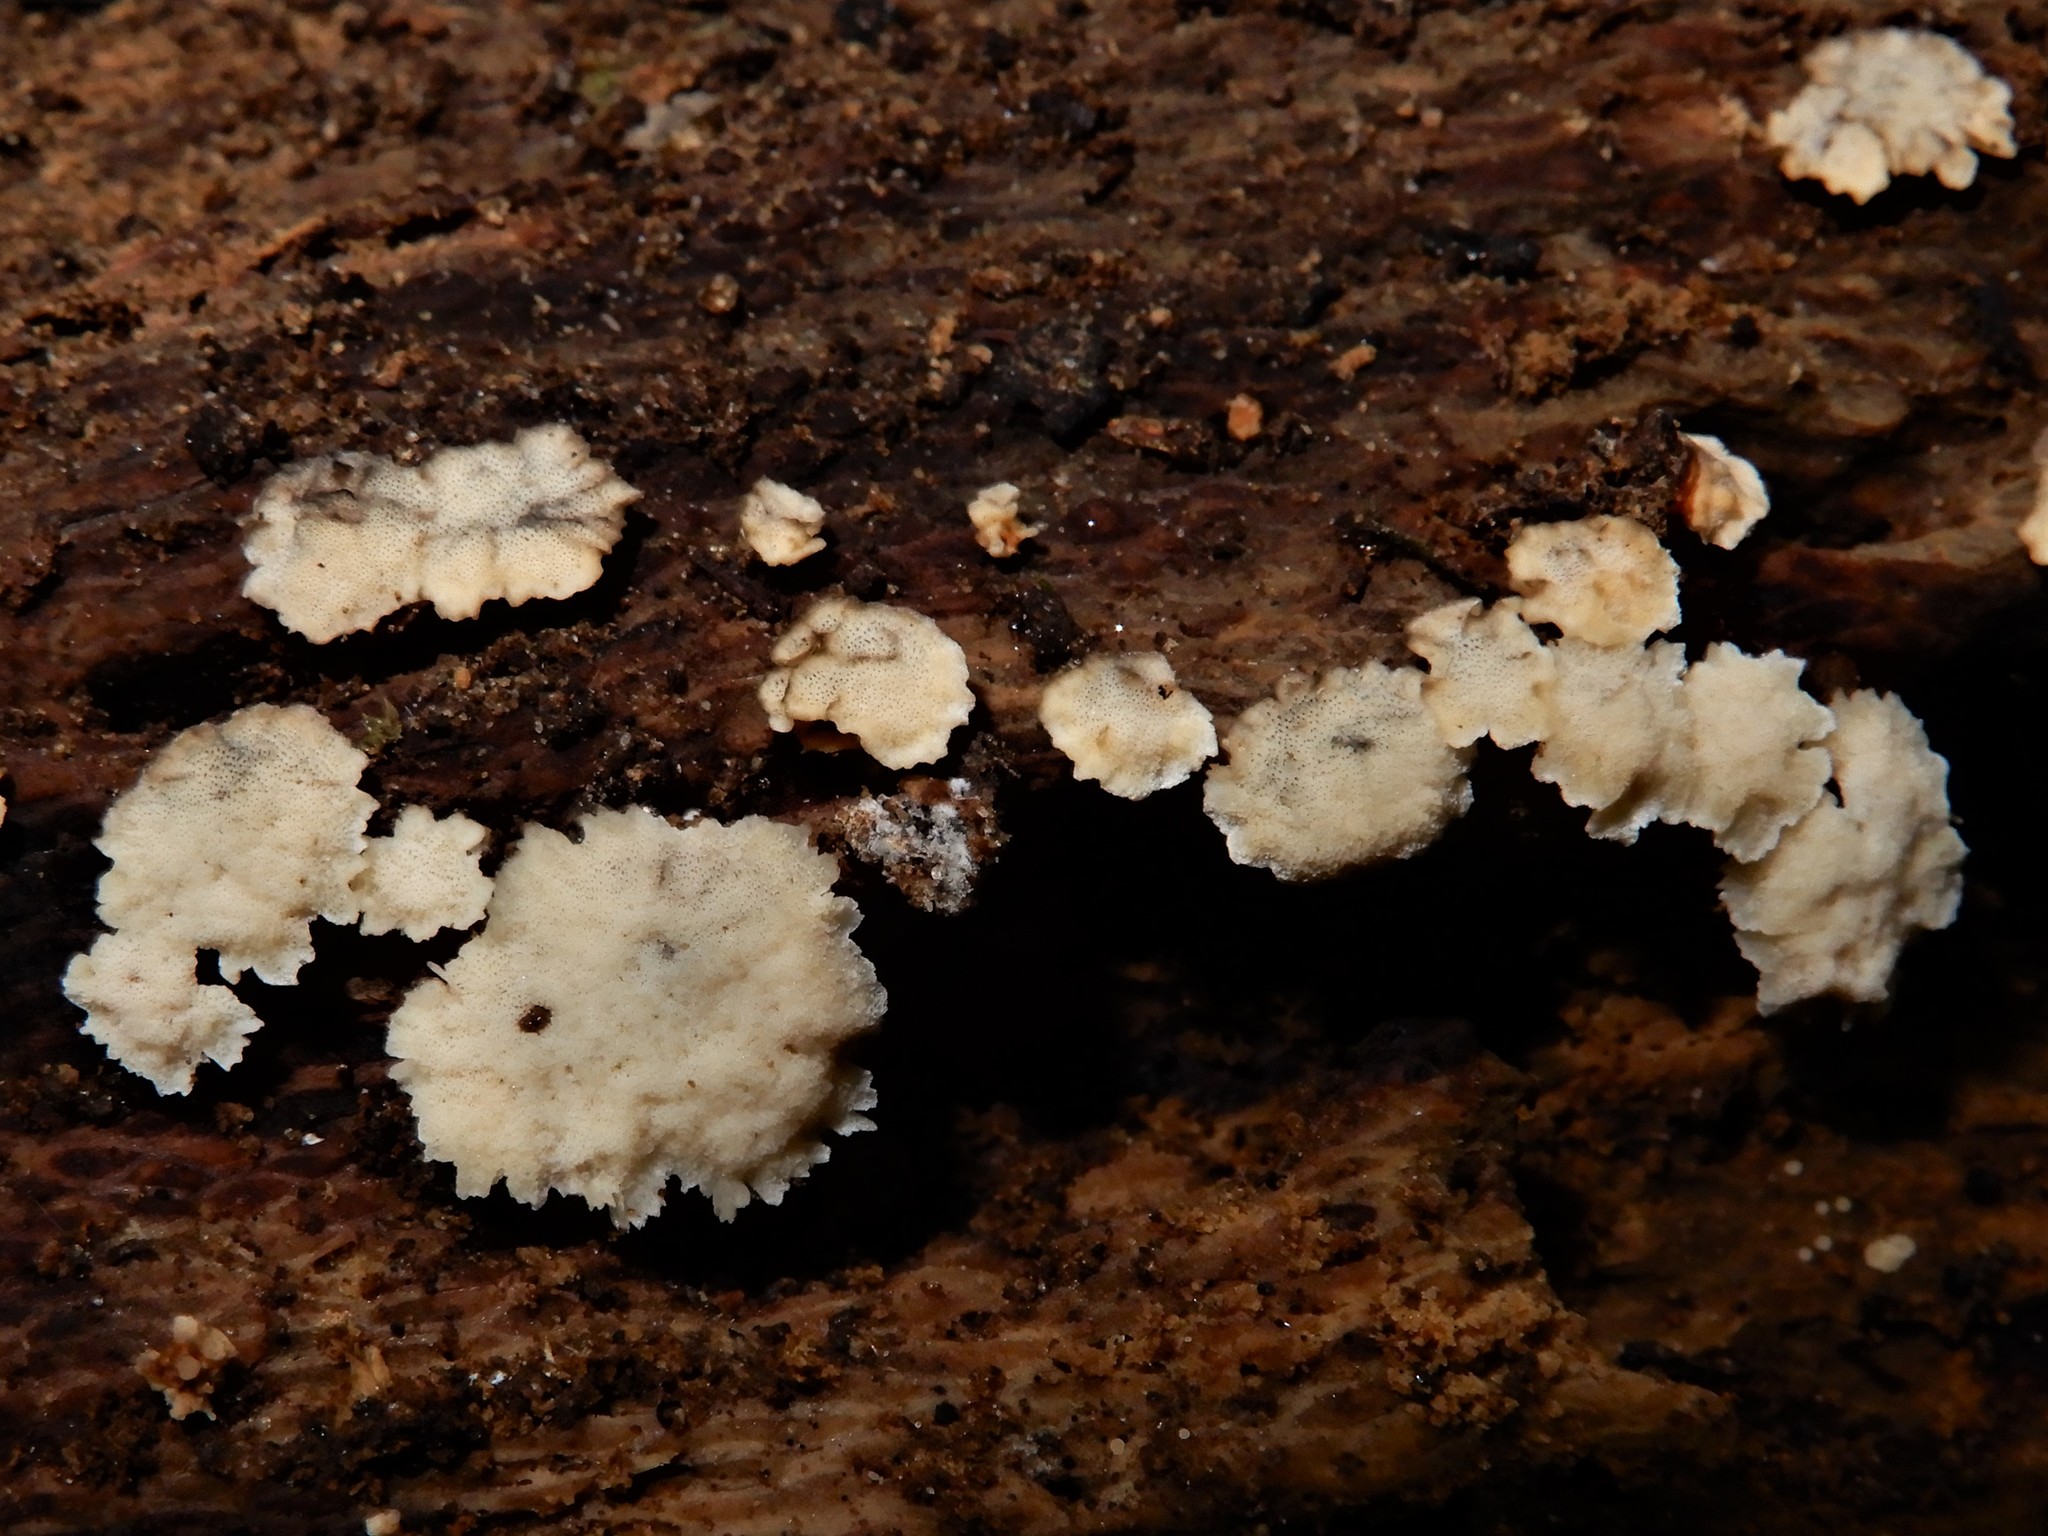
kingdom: Fungi
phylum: Basidiomycota
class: Agaricomycetes
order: Polyporales
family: Meripilaceae
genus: Rigidoporus
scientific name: Rigidoporus microporus
